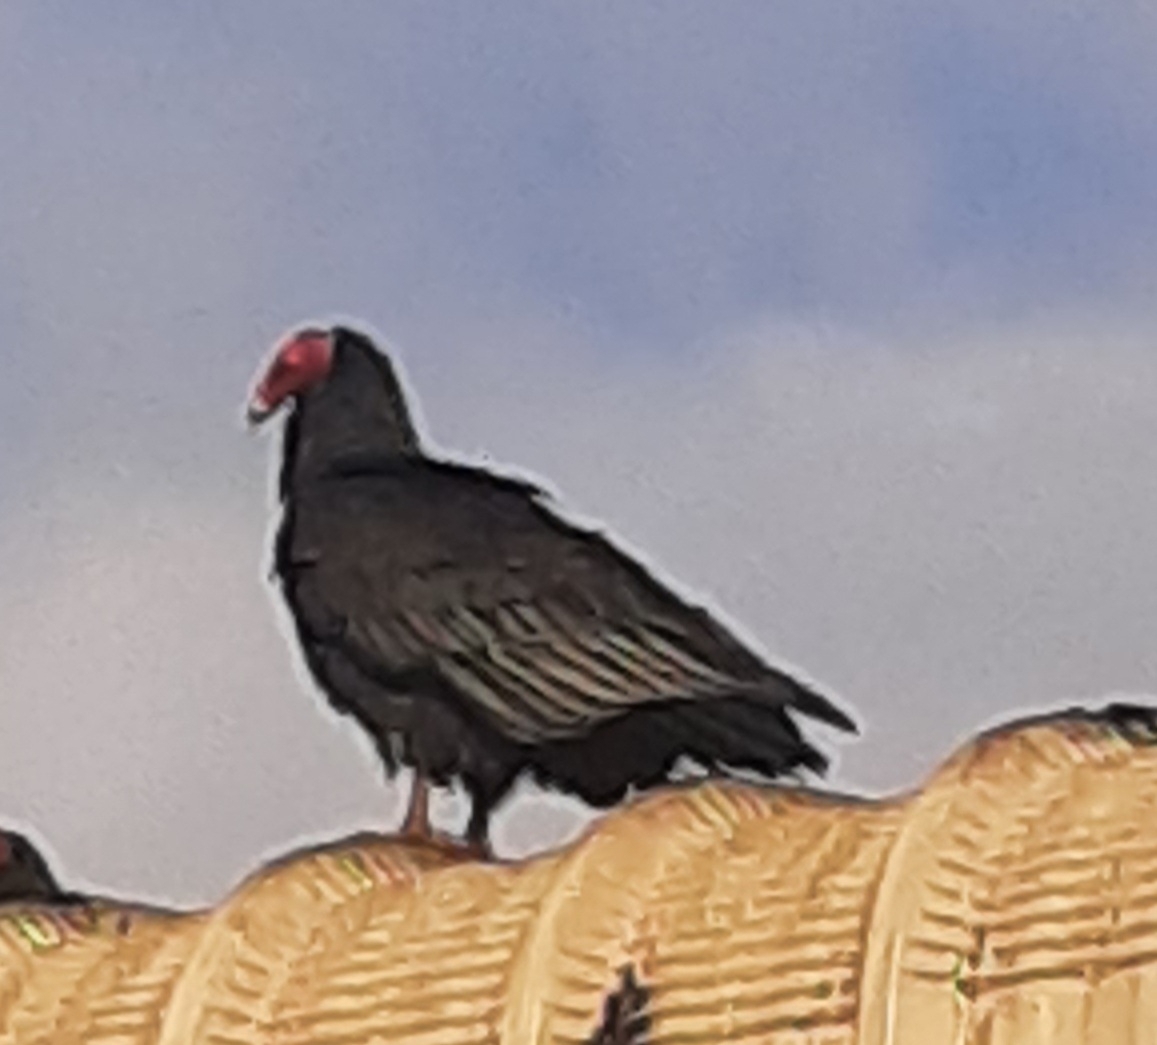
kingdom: Animalia
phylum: Chordata
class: Aves
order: Accipitriformes
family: Cathartidae
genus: Cathartes
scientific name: Cathartes aura
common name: Turkey vulture
